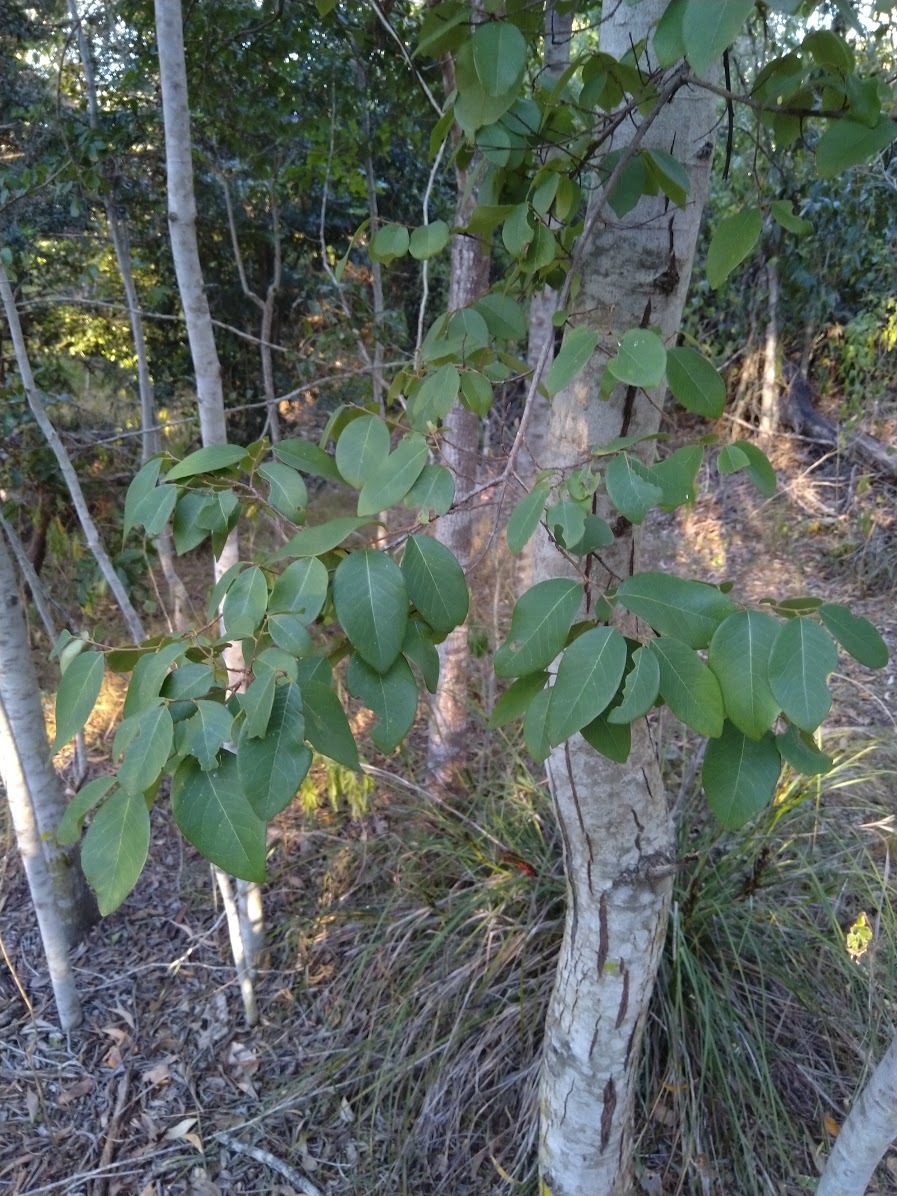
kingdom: Plantae
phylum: Tracheophyta
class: Magnoliopsida
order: Malpighiales
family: Phyllanthaceae
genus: Bridelia
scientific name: Bridelia leichhardtii
